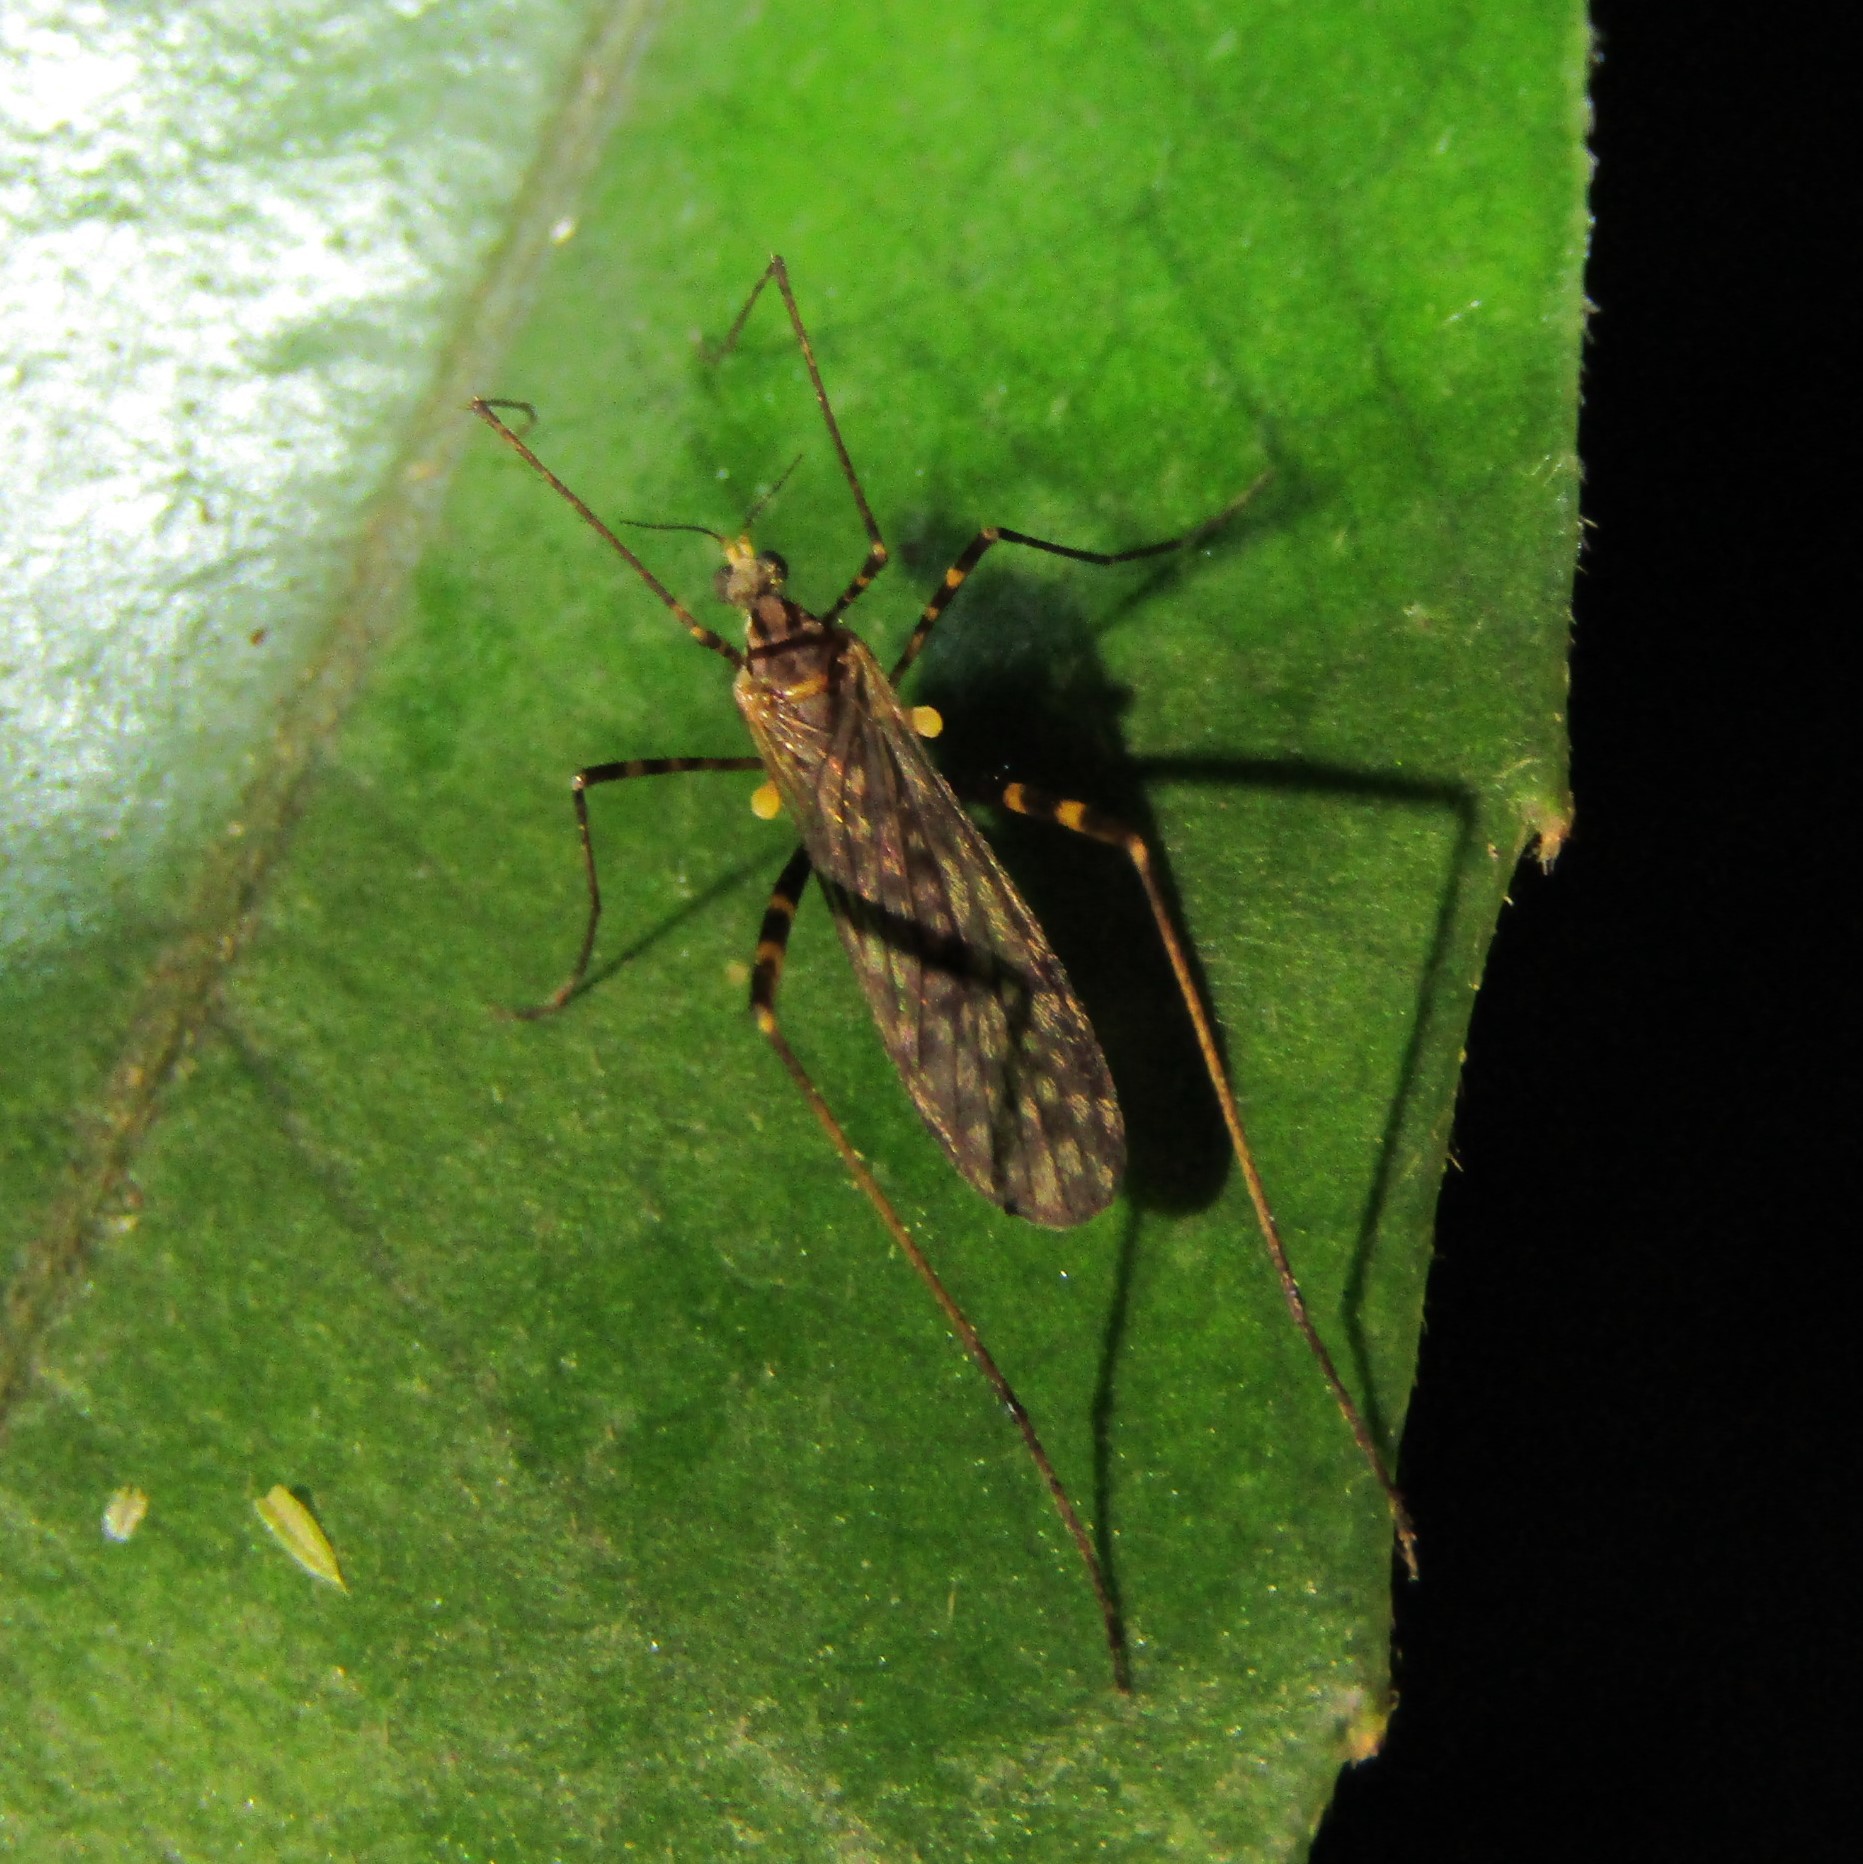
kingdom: Animalia
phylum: Arthropoda
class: Insecta
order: Diptera
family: Limoniidae
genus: Amphineurus
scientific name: Amphineurus bicinctus
